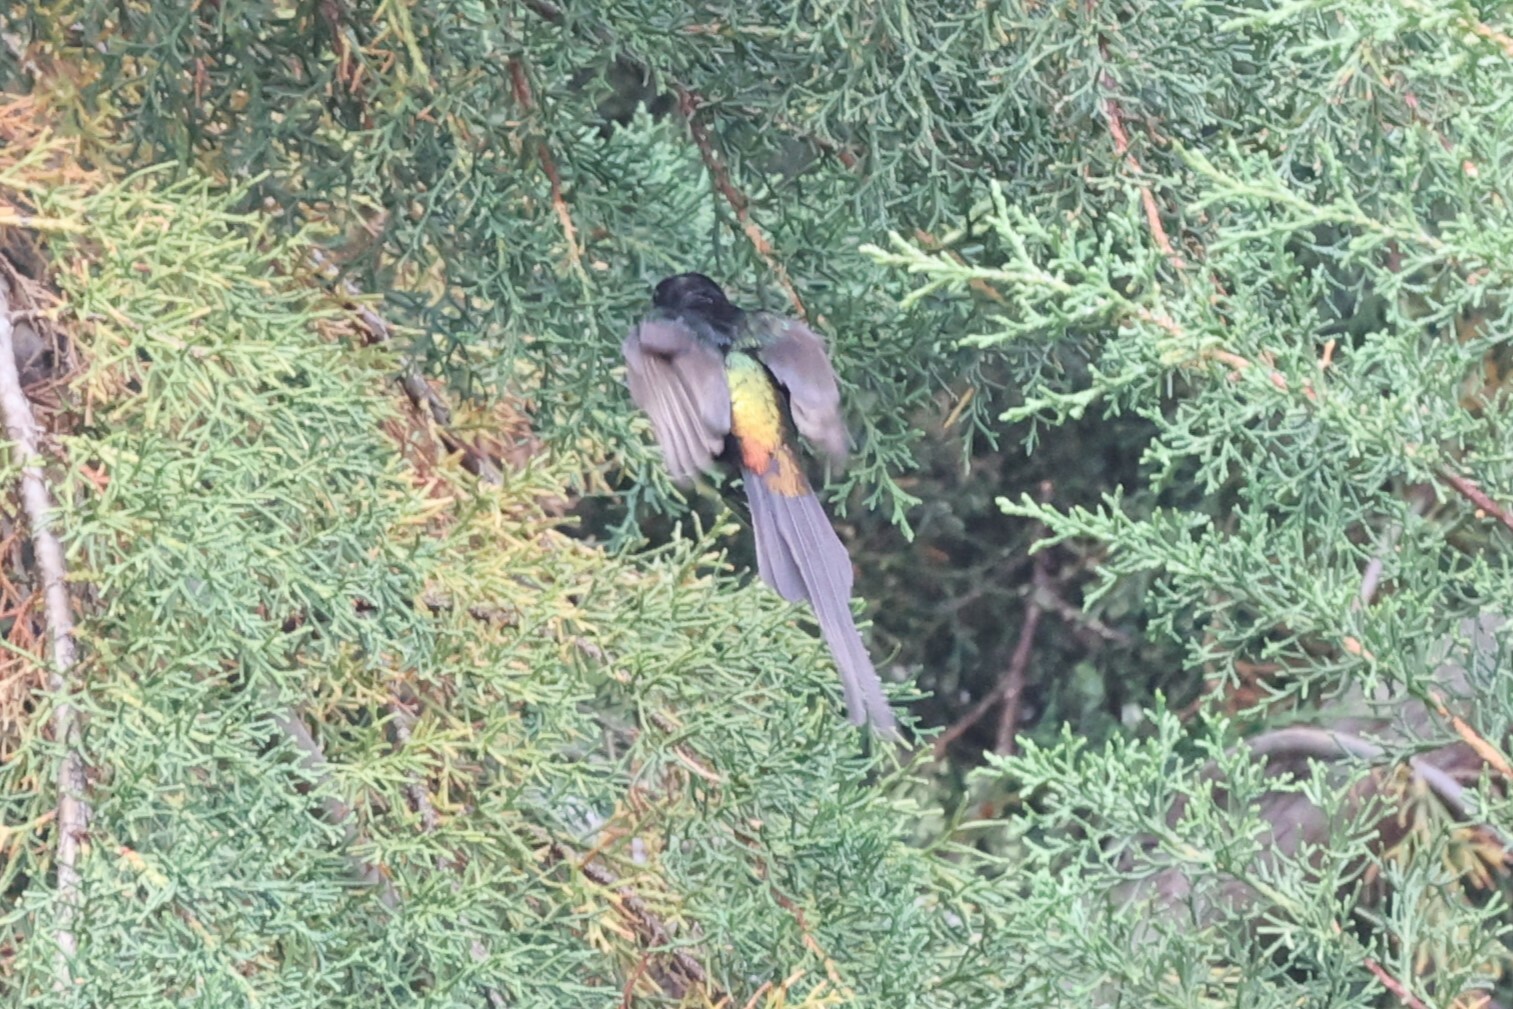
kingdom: Animalia
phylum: Chordata
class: Aves
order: Passeriformes
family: Nectariniidae
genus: Nectarinia
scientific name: Nectarinia kilimensis
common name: Bronzy sunbird
